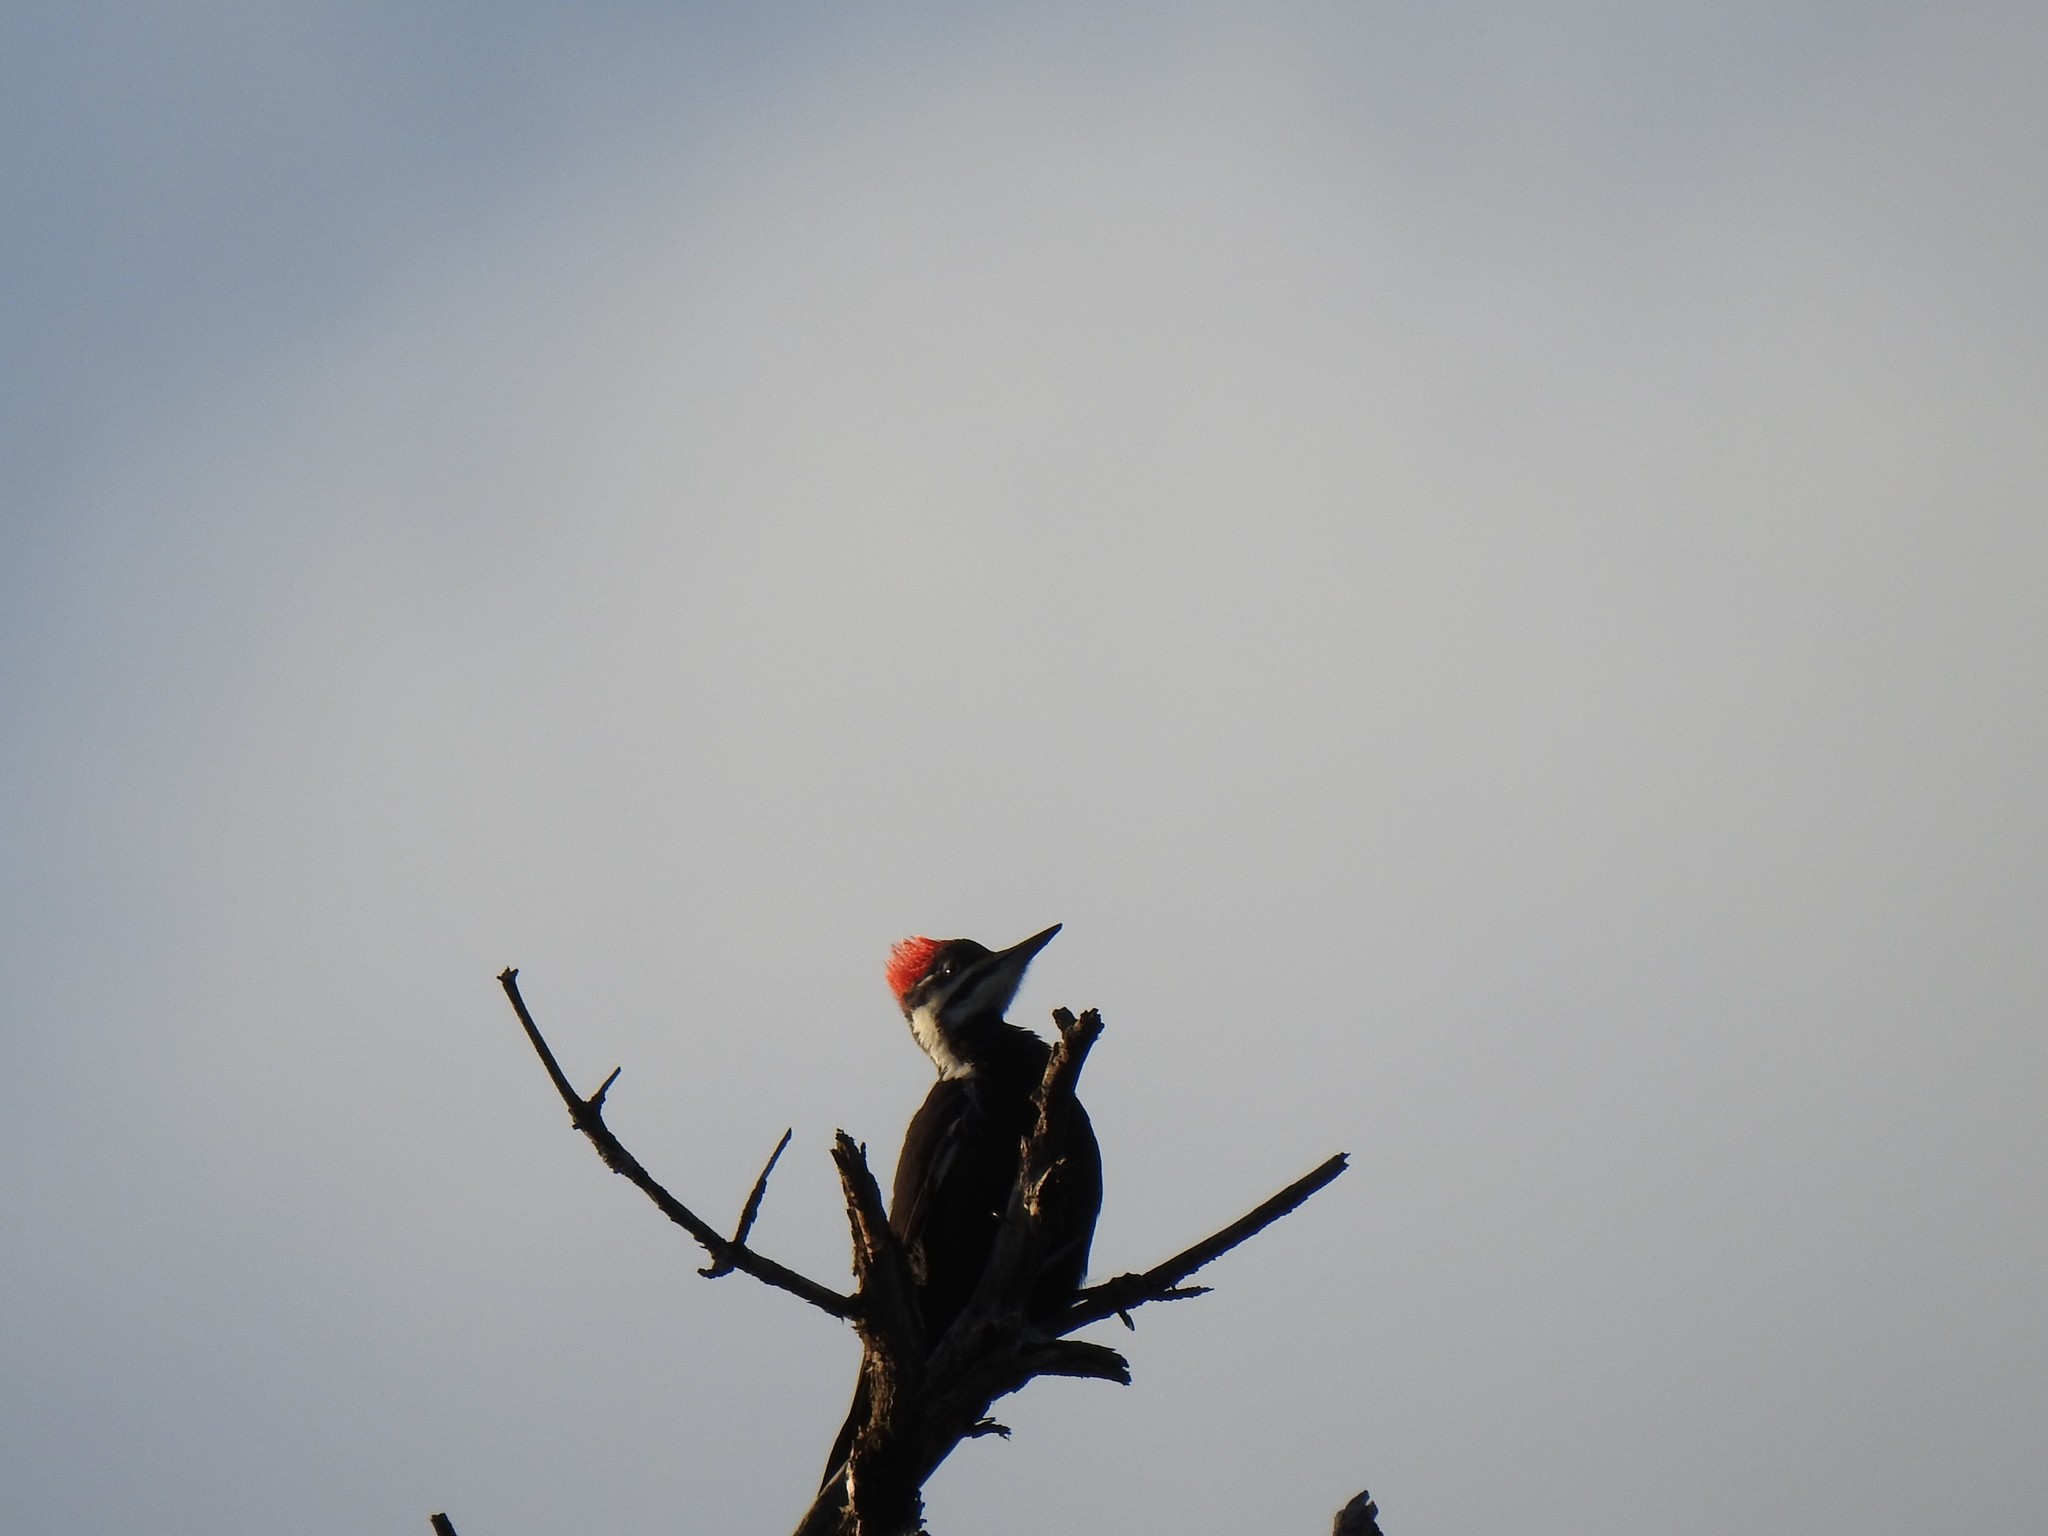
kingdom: Animalia
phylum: Chordata
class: Aves
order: Piciformes
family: Picidae
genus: Dryocopus
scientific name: Dryocopus pileatus
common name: Pileated woodpecker
